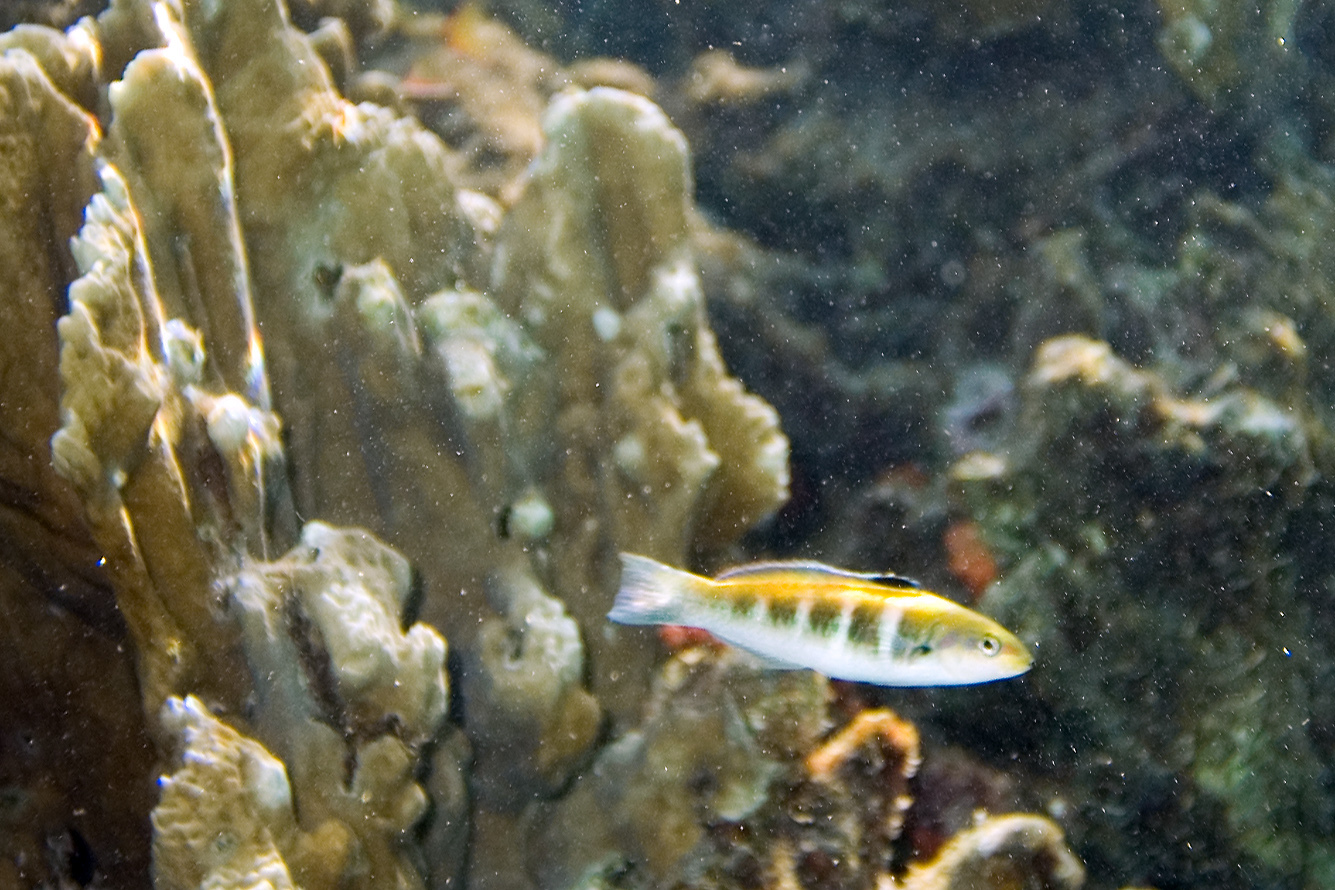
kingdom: Animalia
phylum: Chordata
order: Perciformes
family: Labridae
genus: Thalassoma
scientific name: Thalassoma bifasciatum
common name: Bluehead wrasse
